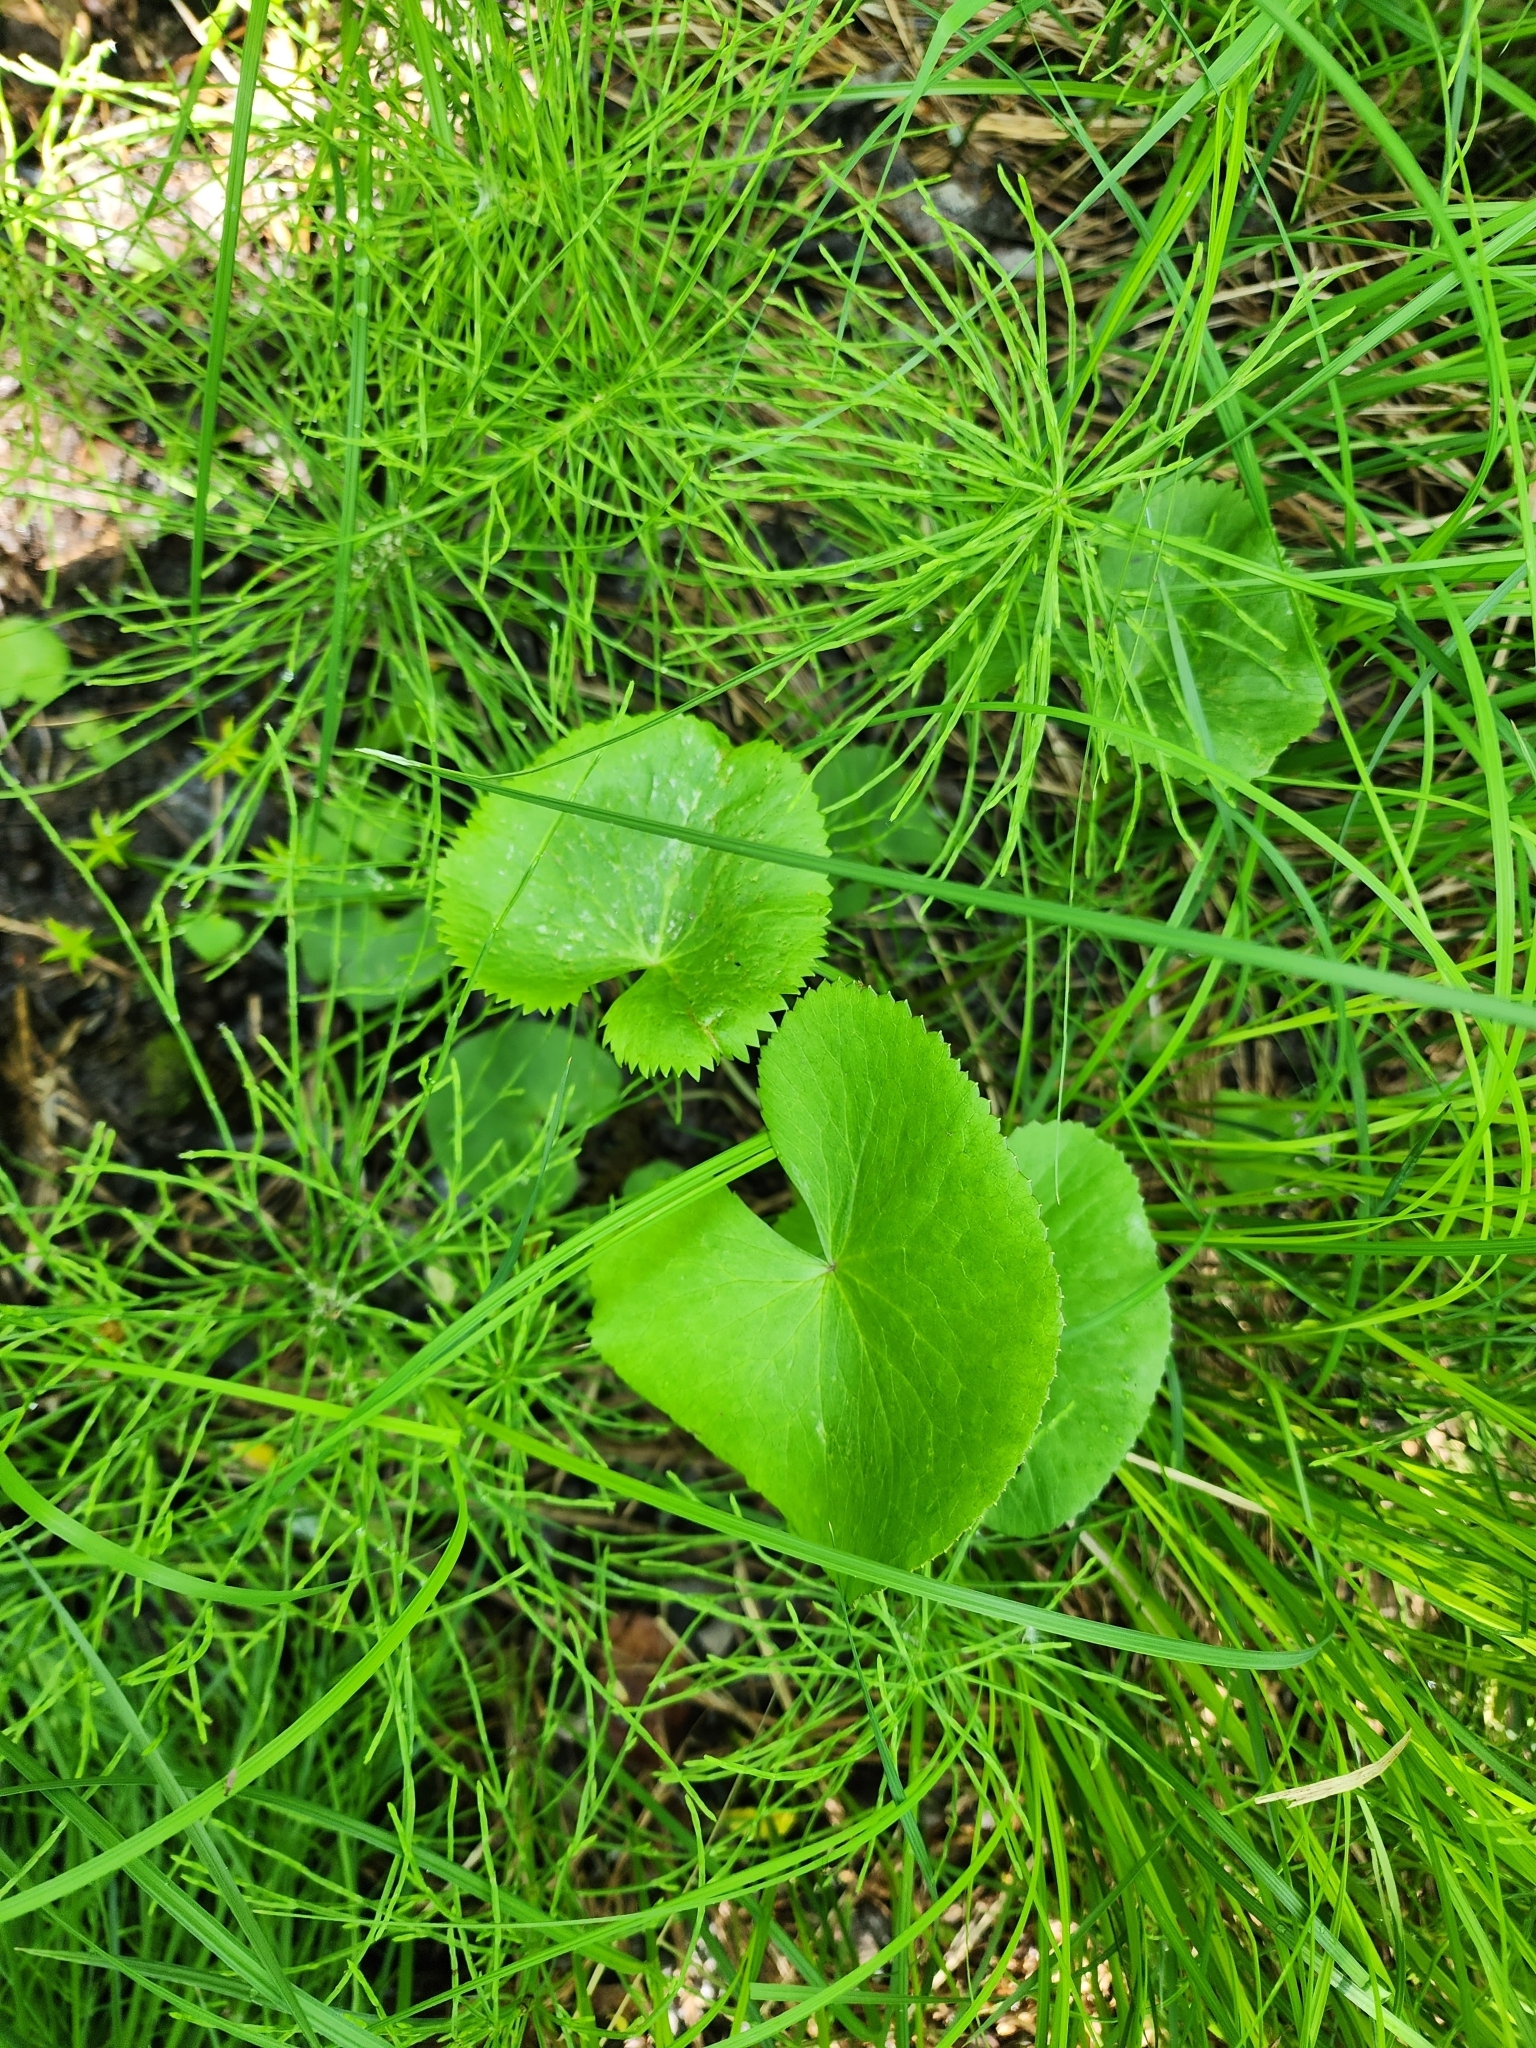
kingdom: Plantae
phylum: Tracheophyta
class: Magnoliopsida
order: Ranunculales
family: Ranunculaceae
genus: Caltha
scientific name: Caltha palustris
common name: Marsh marigold
